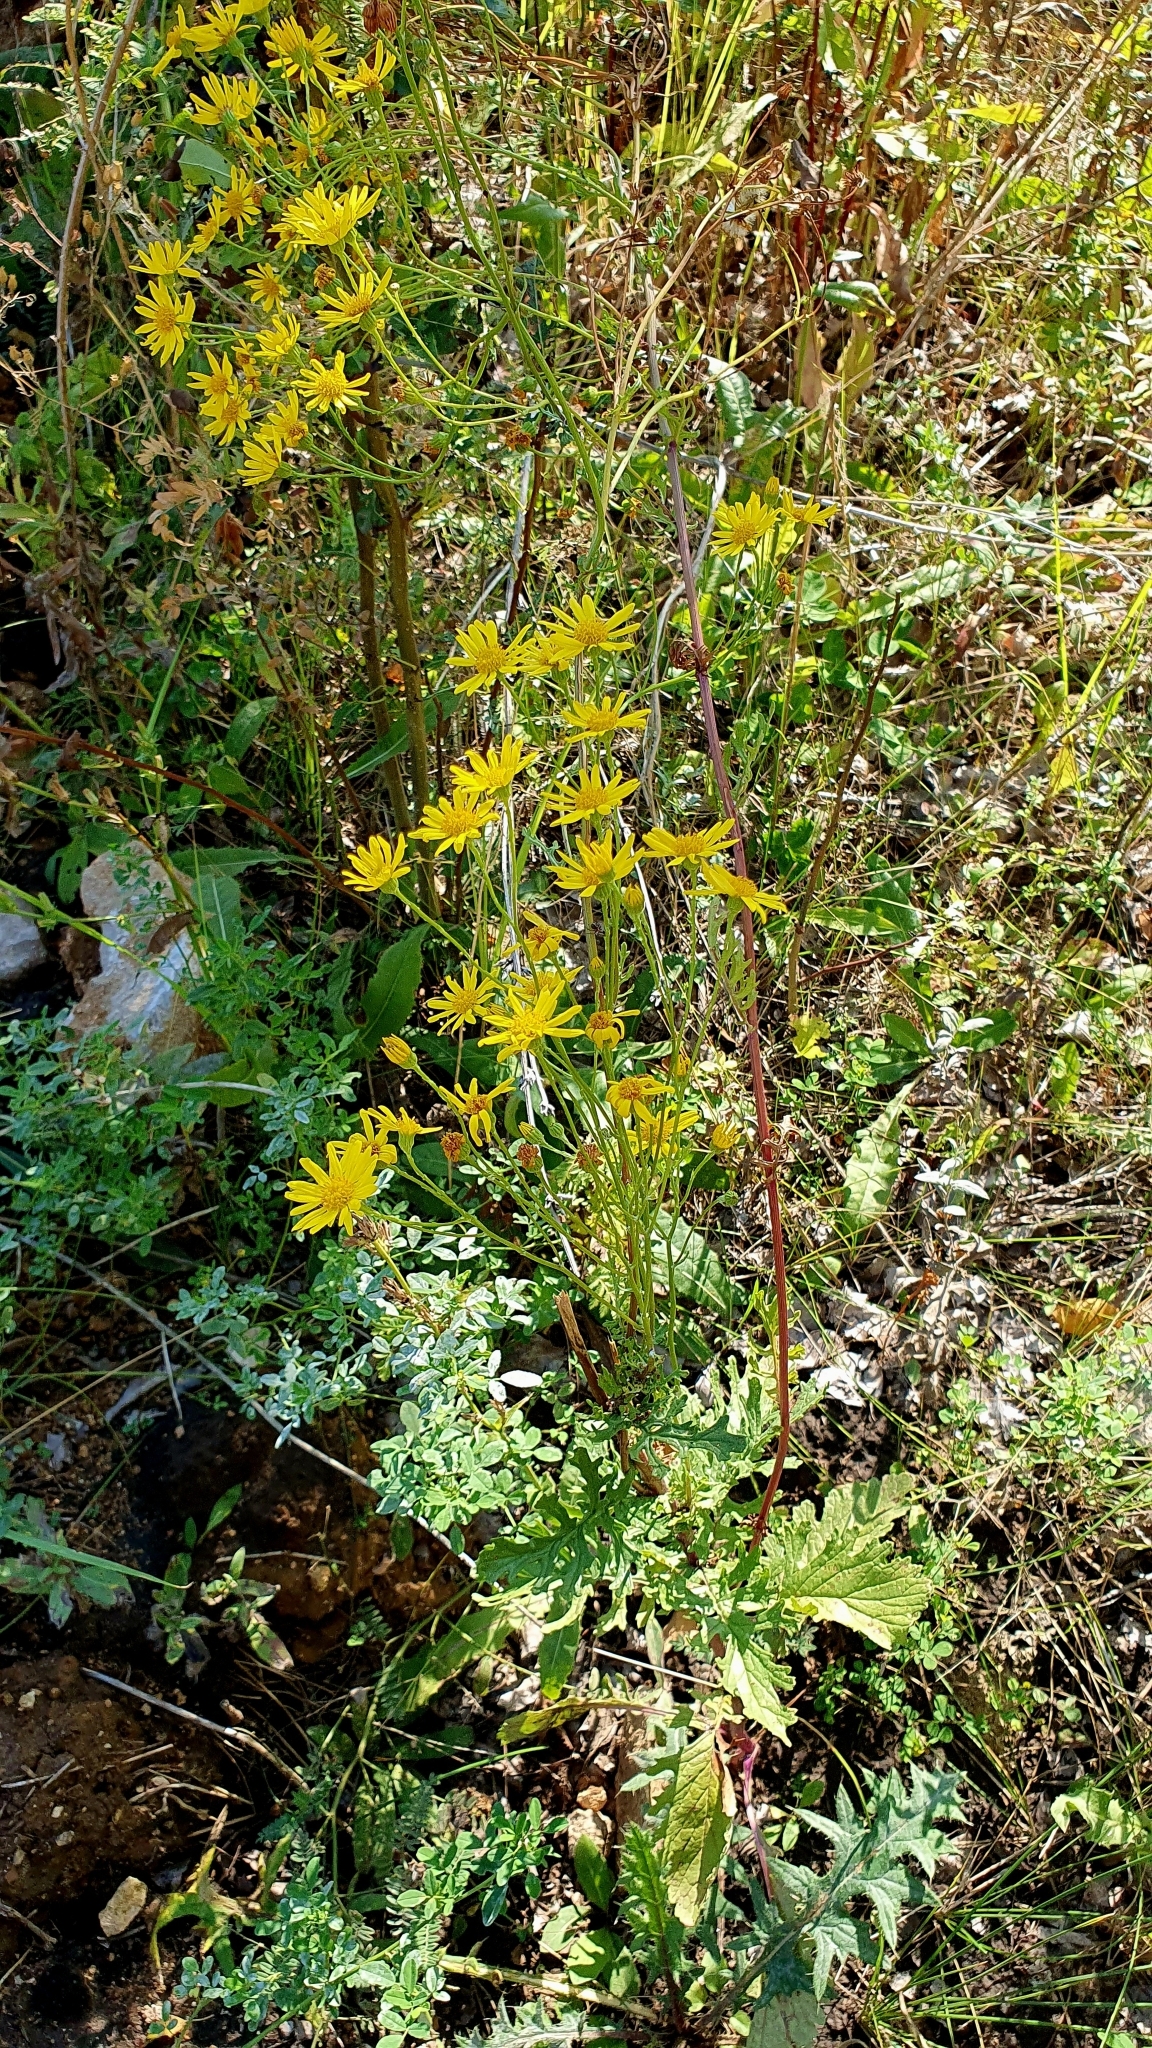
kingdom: Plantae
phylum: Tracheophyta
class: Magnoliopsida
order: Asterales
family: Asteraceae
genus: Jacobaea
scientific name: Jacobaea vulgaris
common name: Stinking willie
